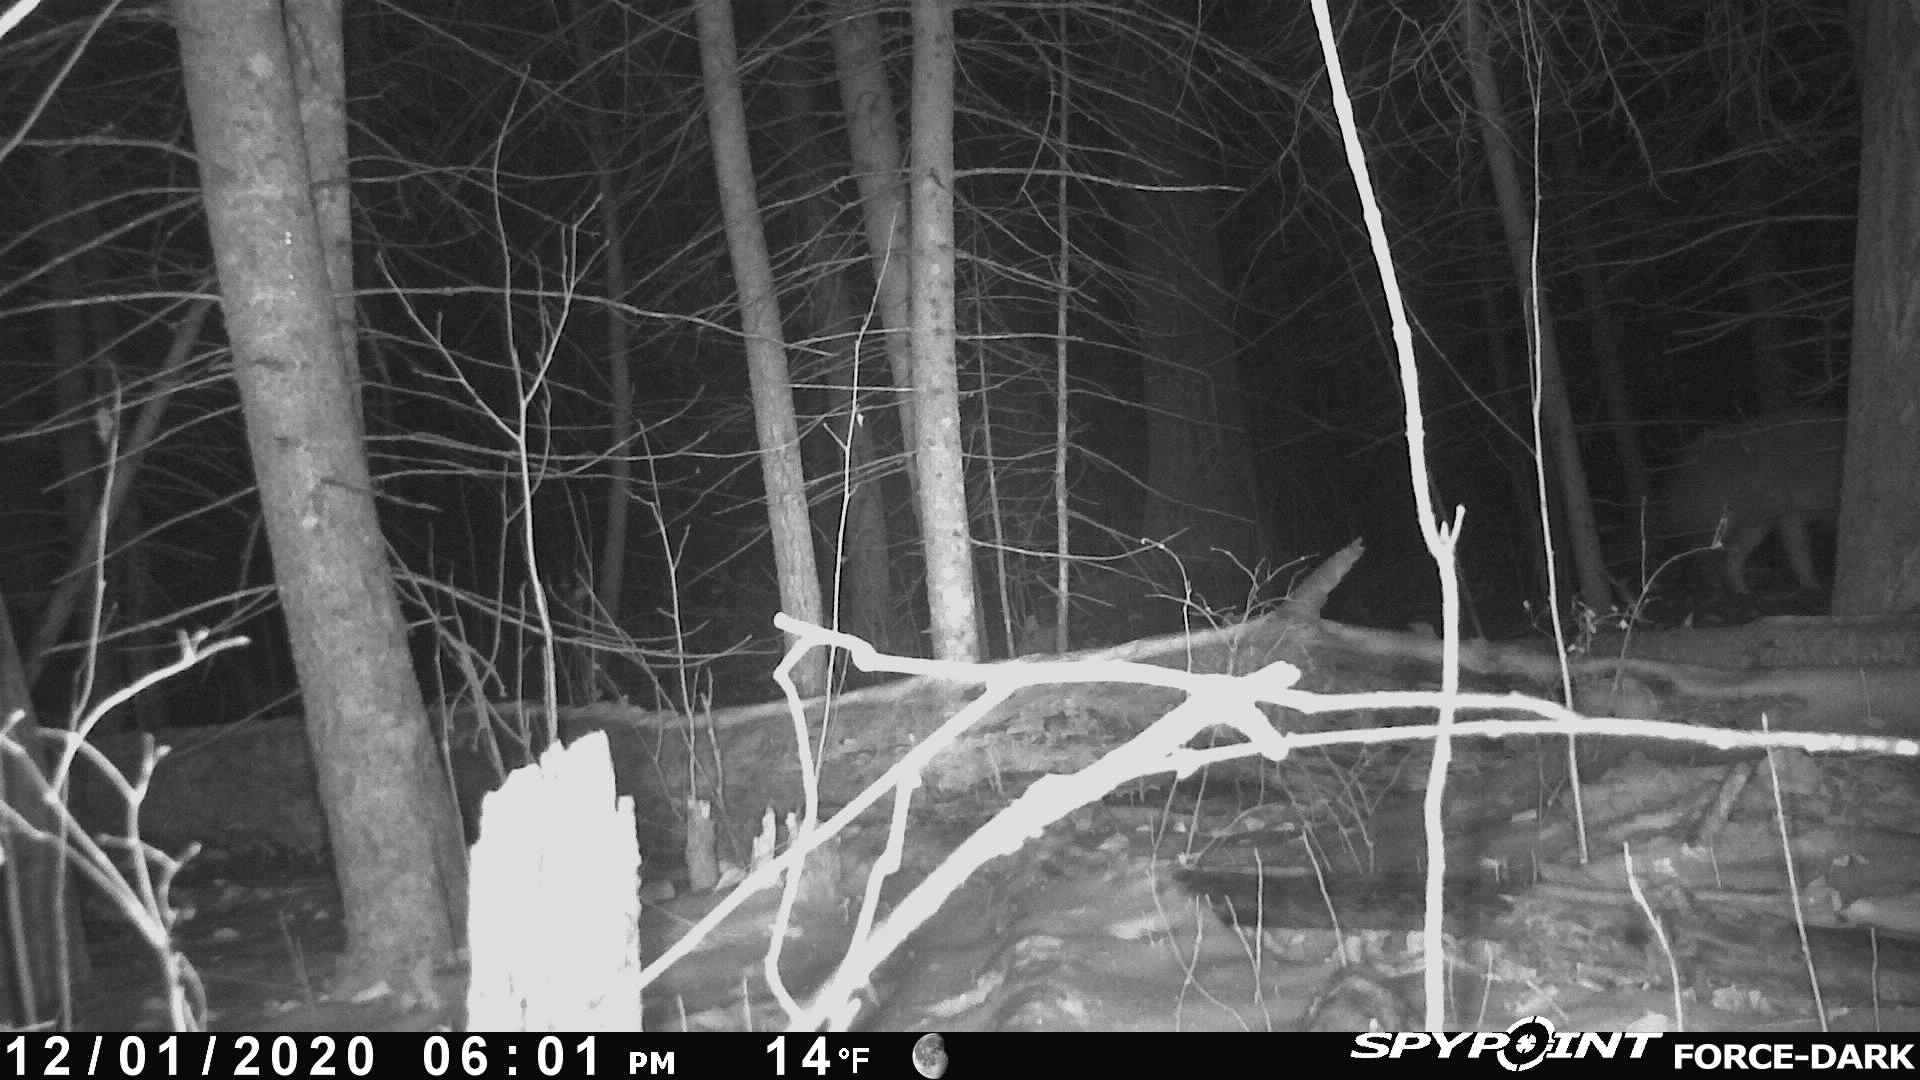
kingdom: Animalia
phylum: Chordata
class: Mammalia
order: Carnivora
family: Canidae
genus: Canis
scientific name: Canis latrans
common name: Coyote
